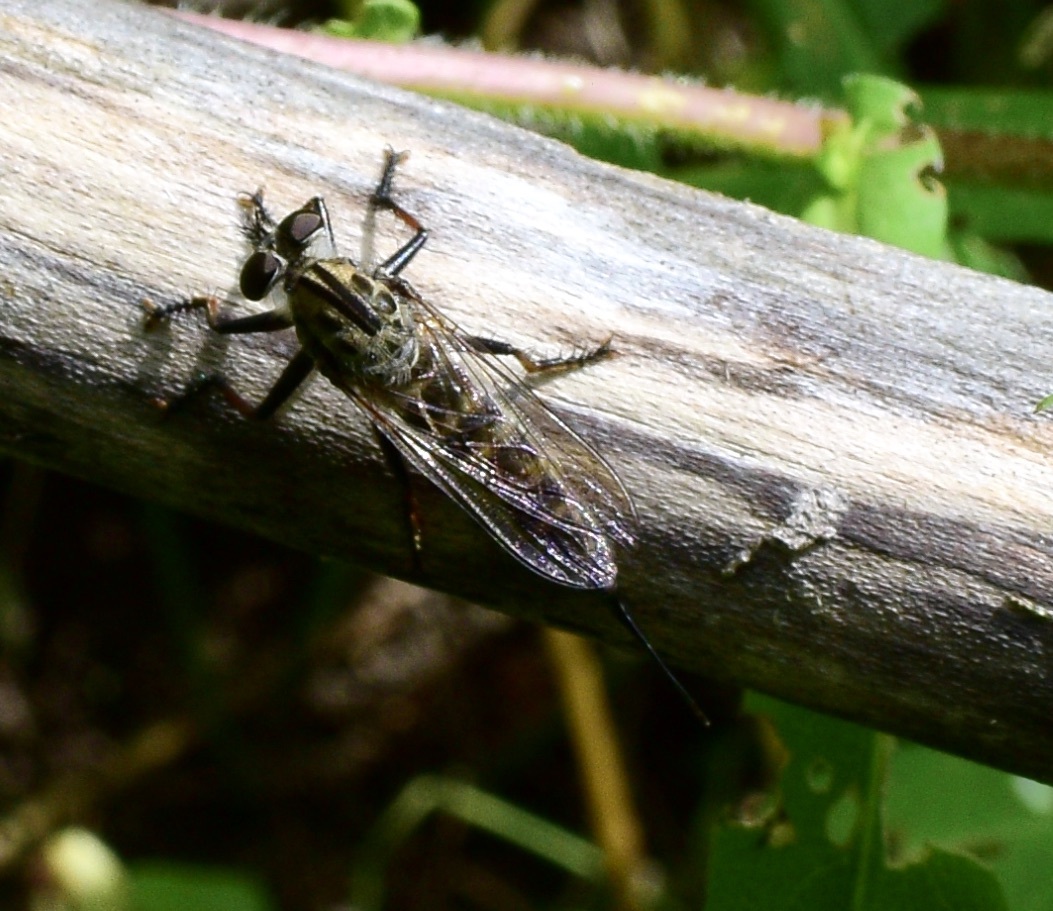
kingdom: Animalia
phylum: Arthropoda
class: Insecta
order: Diptera
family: Asilidae
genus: Efferia
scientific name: Efferia aestuans
